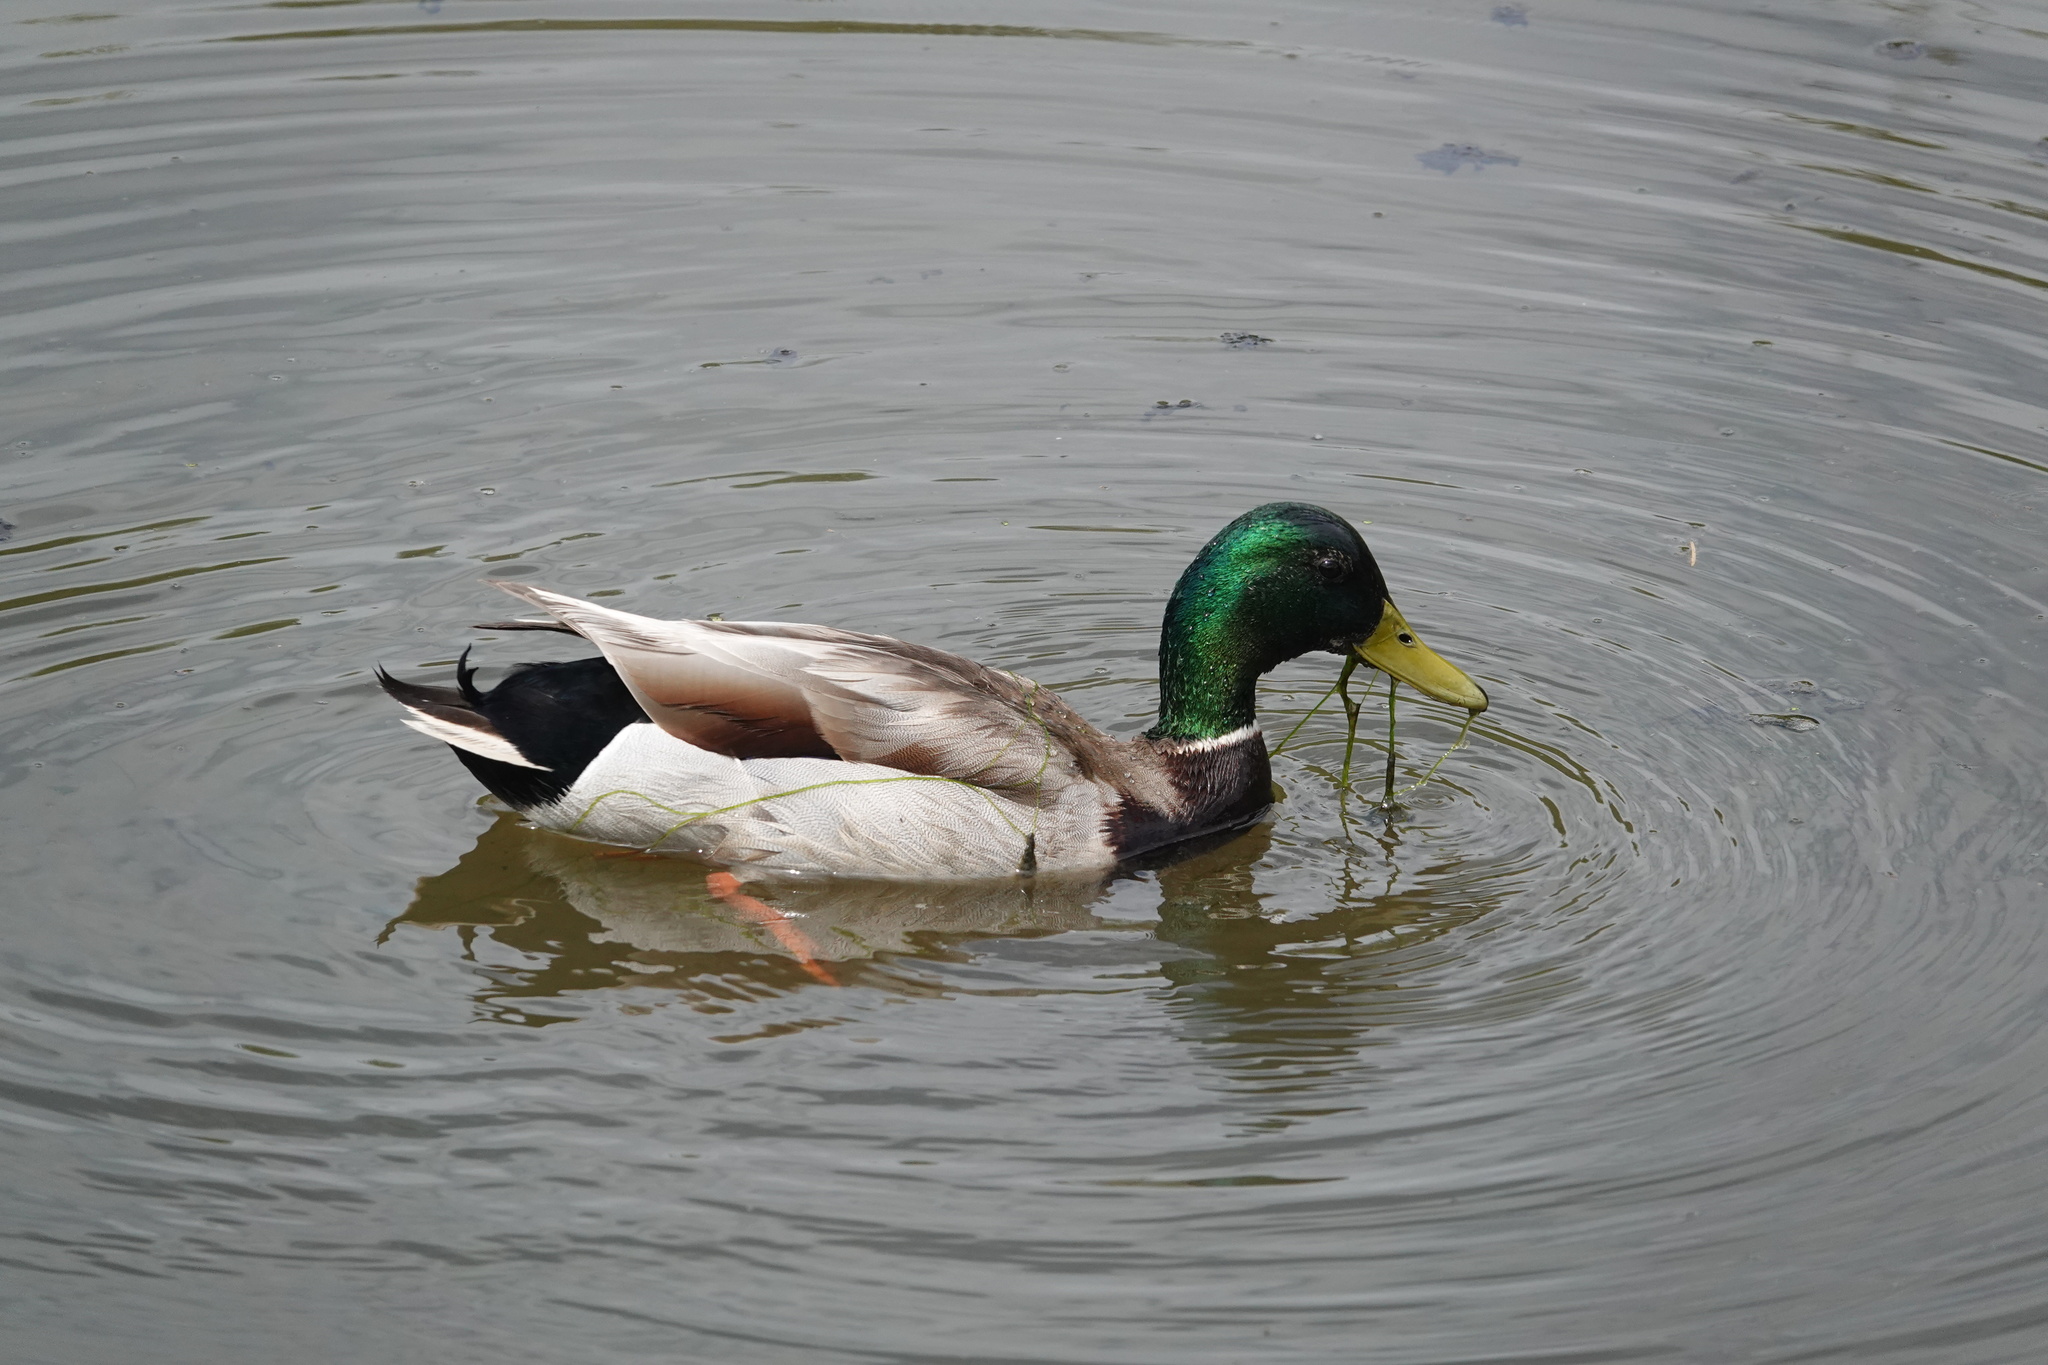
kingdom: Animalia
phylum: Chordata
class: Aves
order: Anseriformes
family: Anatidae
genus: Anas
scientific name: Anas platyrhynchos
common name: Mallard
